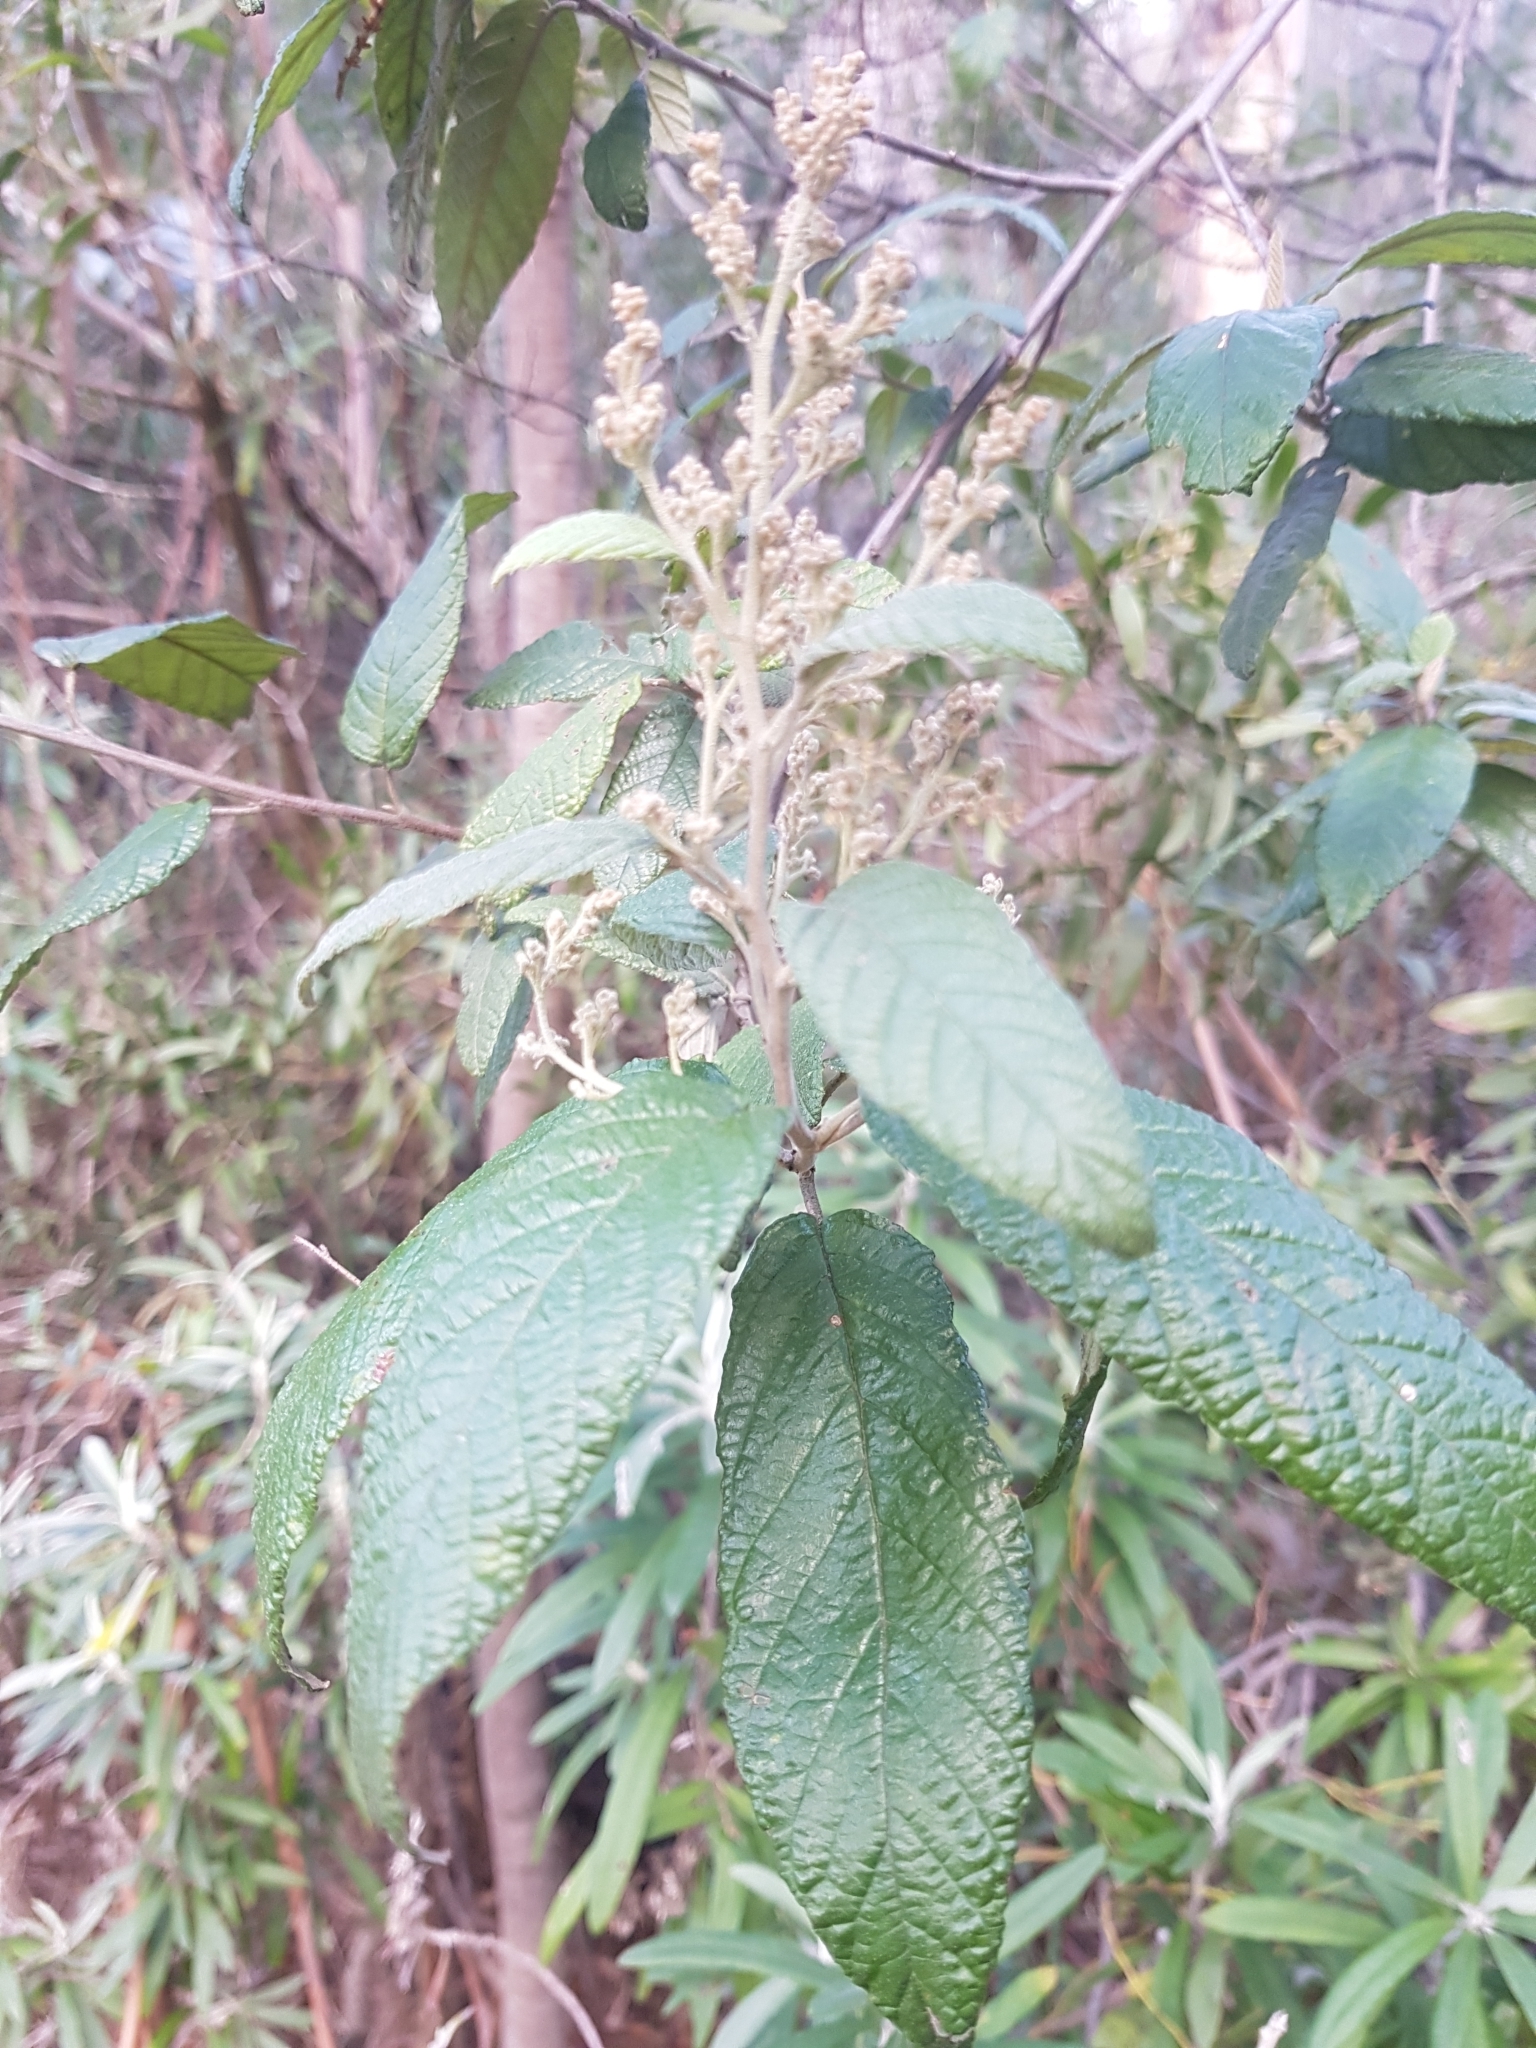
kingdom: Plantae
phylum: Tracheophyta
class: Magnoliopsida
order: Rosales
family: Rhamnaceae
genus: Pomaderris
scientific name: Pomaderris apetala
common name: Hazel pomaderris
